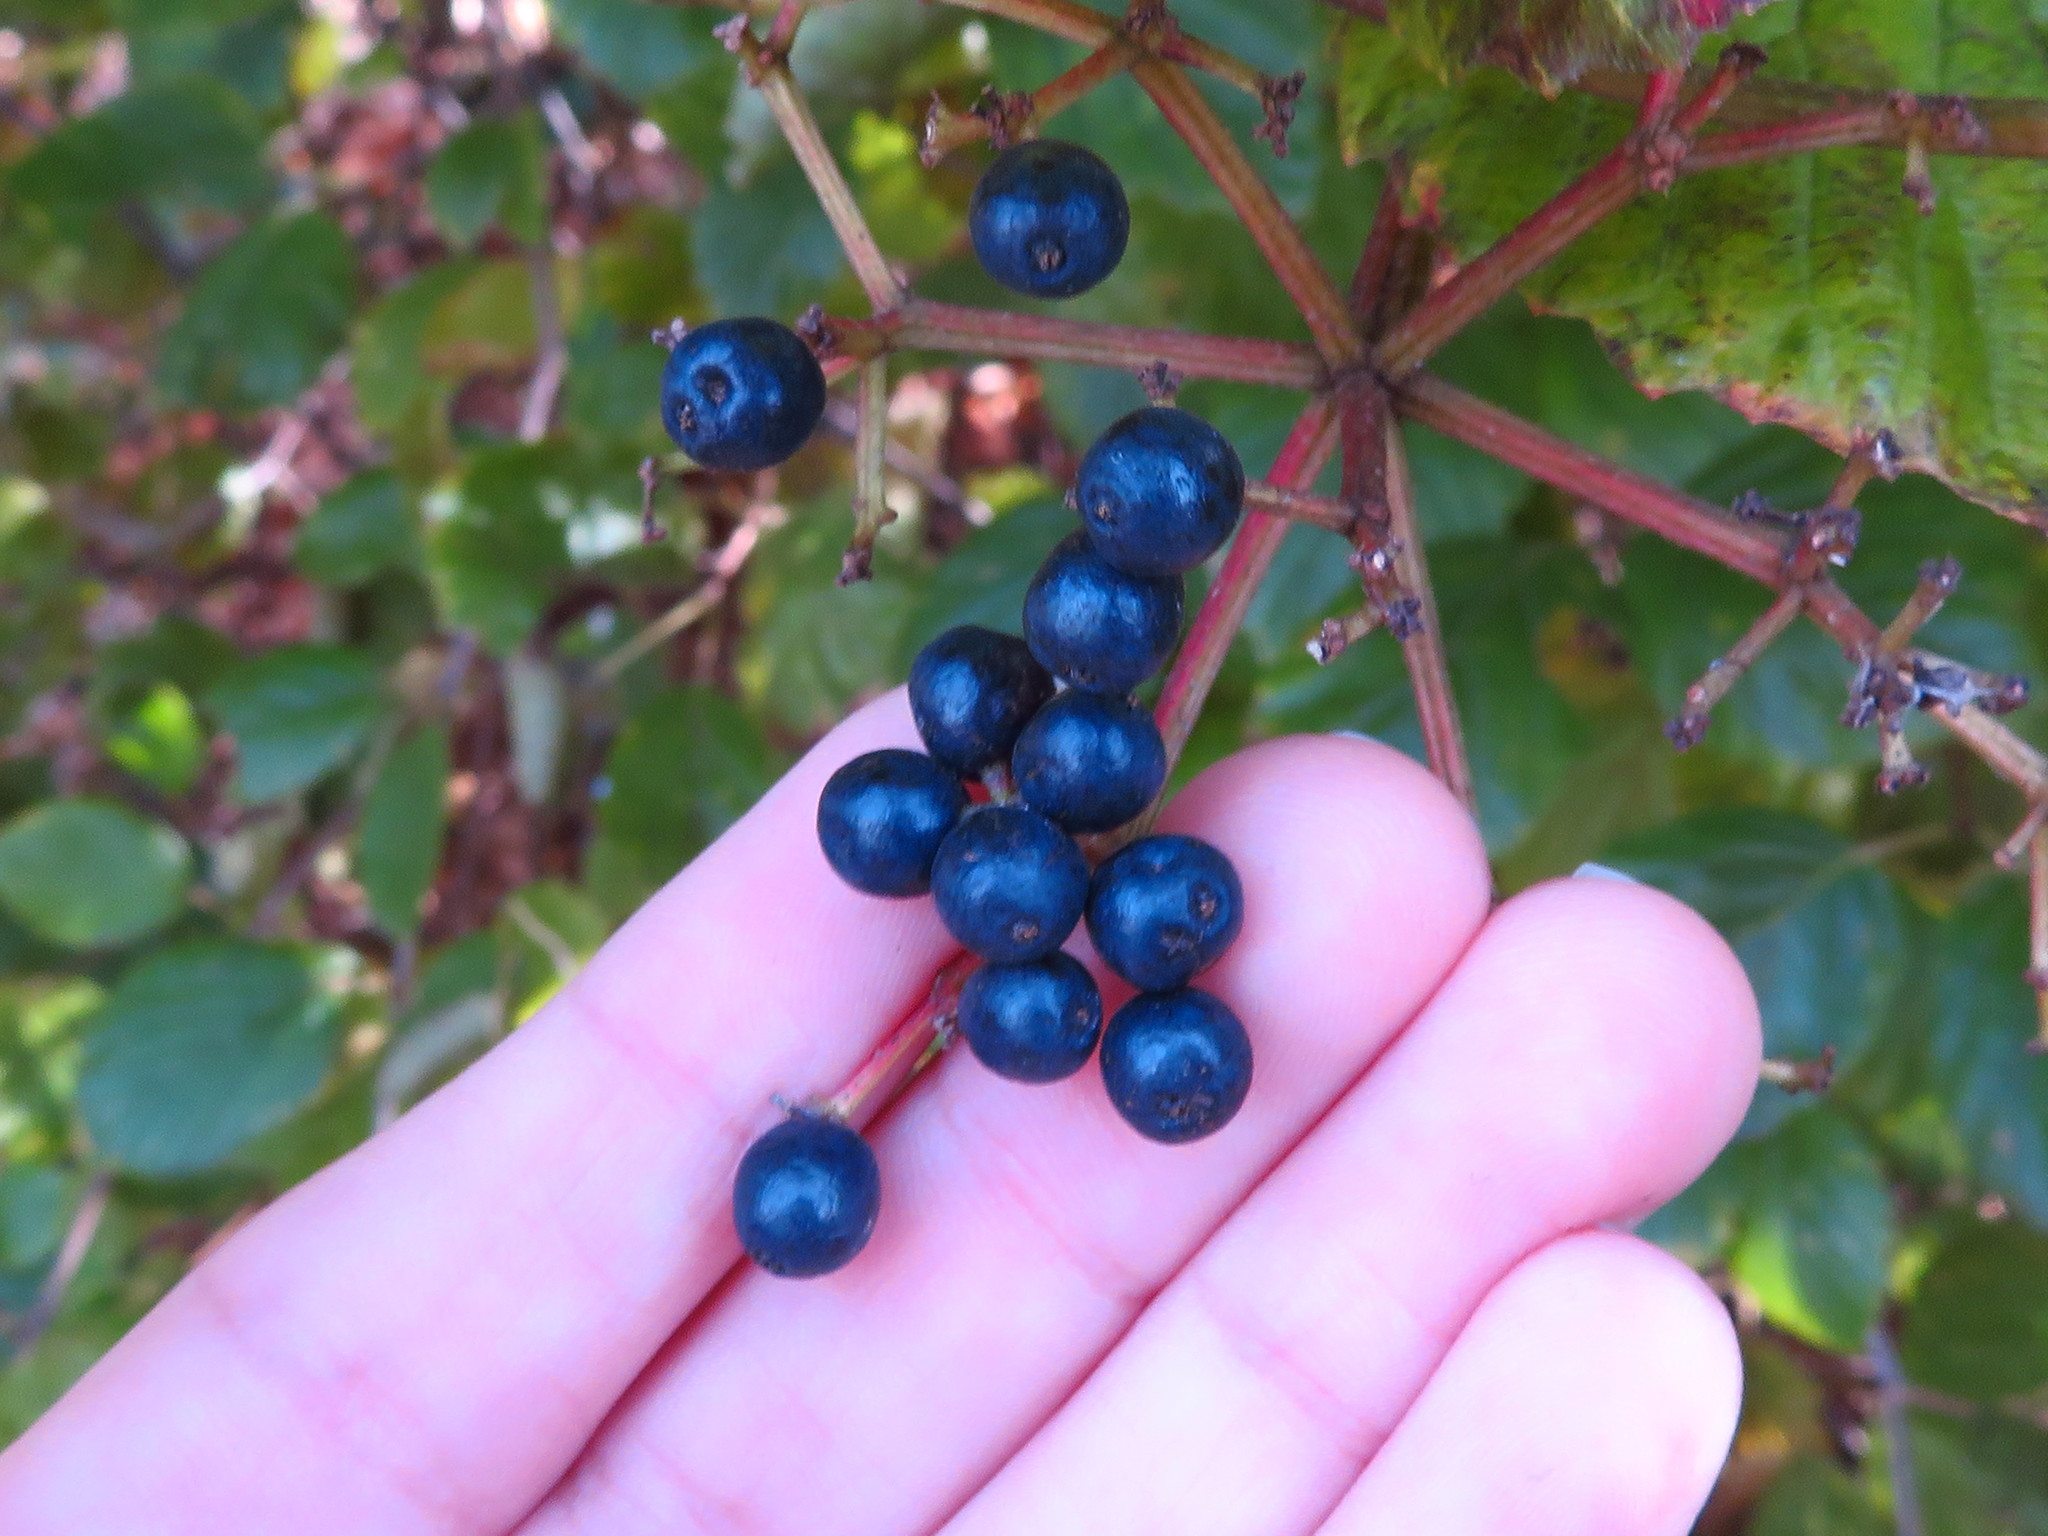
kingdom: Plantae
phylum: Tracheophyta
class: Magnoliopsida
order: Cornales
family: Cornaceae
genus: Cornus
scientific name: Cornus amomum
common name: Silky dogwood
